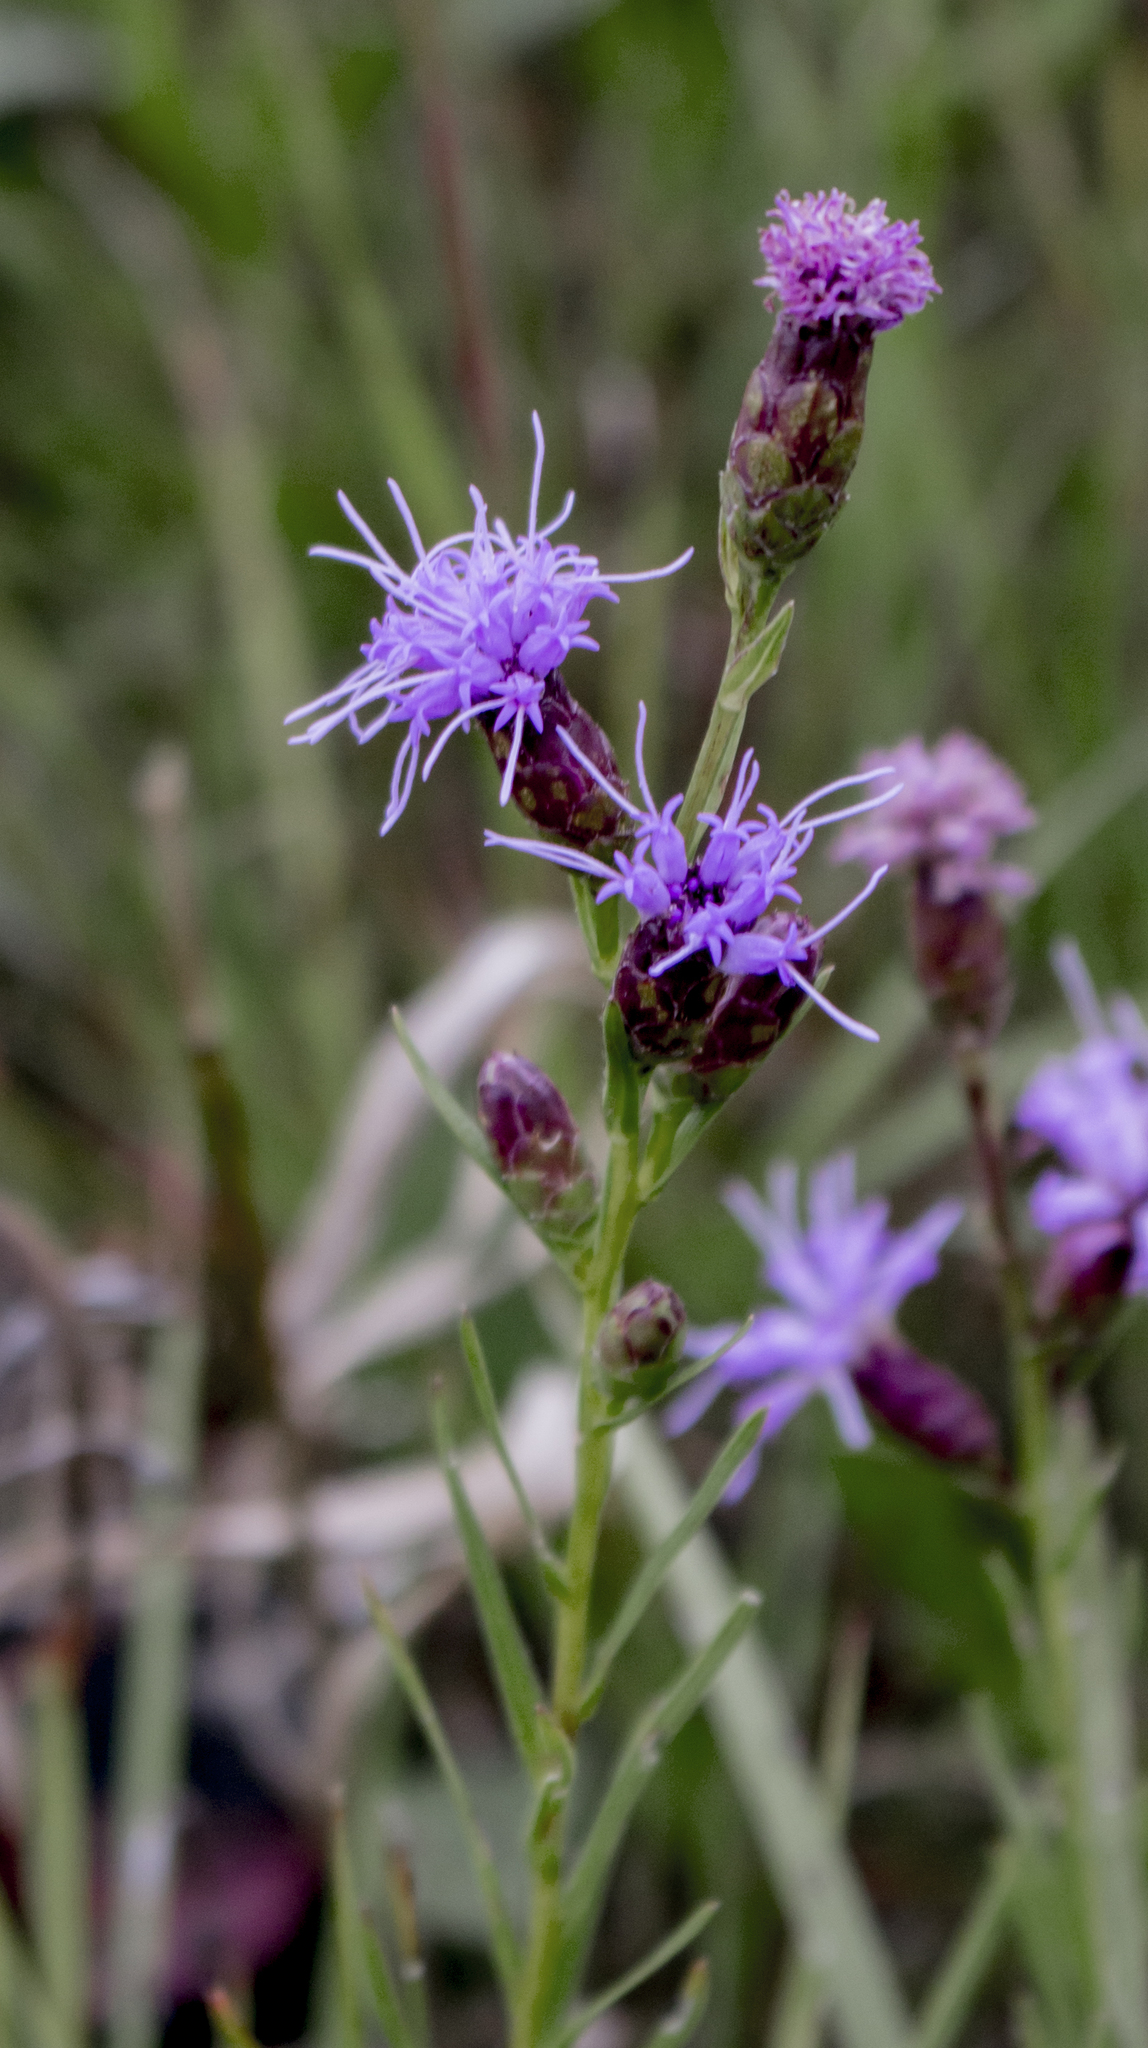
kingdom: Plantae
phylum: Tracheophyta
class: Magnoliopsida
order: Asterales
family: Asteraceae
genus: Liatris
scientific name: Liatris cylindracea
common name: Few-head blazingstar
